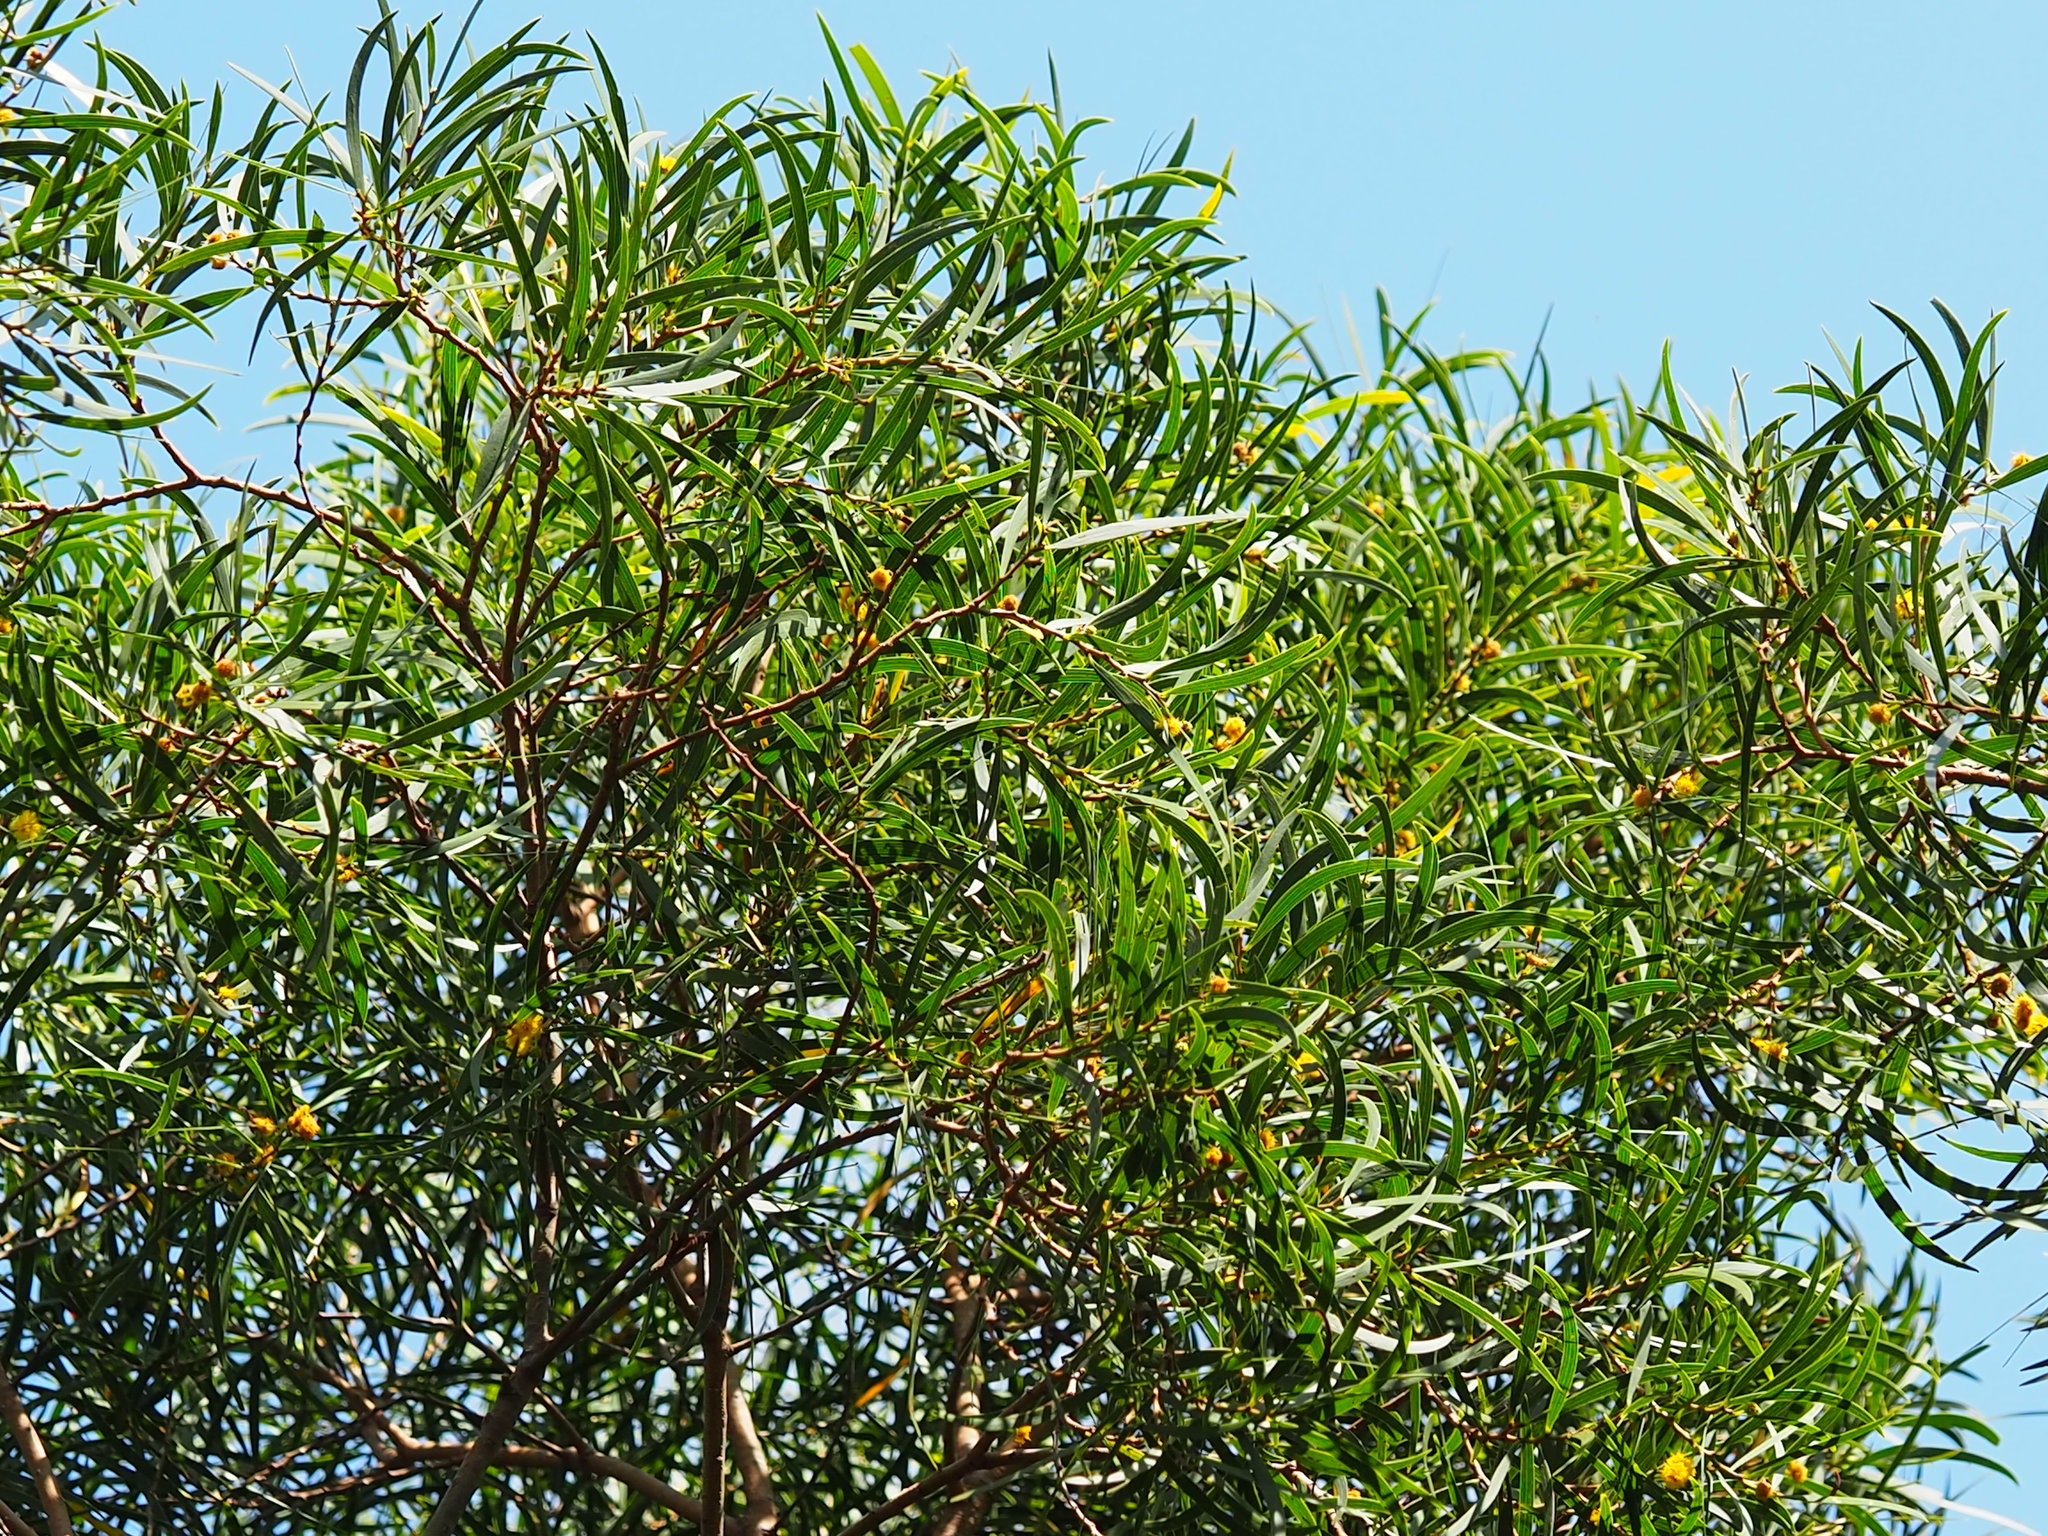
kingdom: Plantae
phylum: Tracheophyta
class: Magnoliopsida
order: Fabales
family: Fabaceae
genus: Acacia
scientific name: Acacia confusa
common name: Formosan koa
